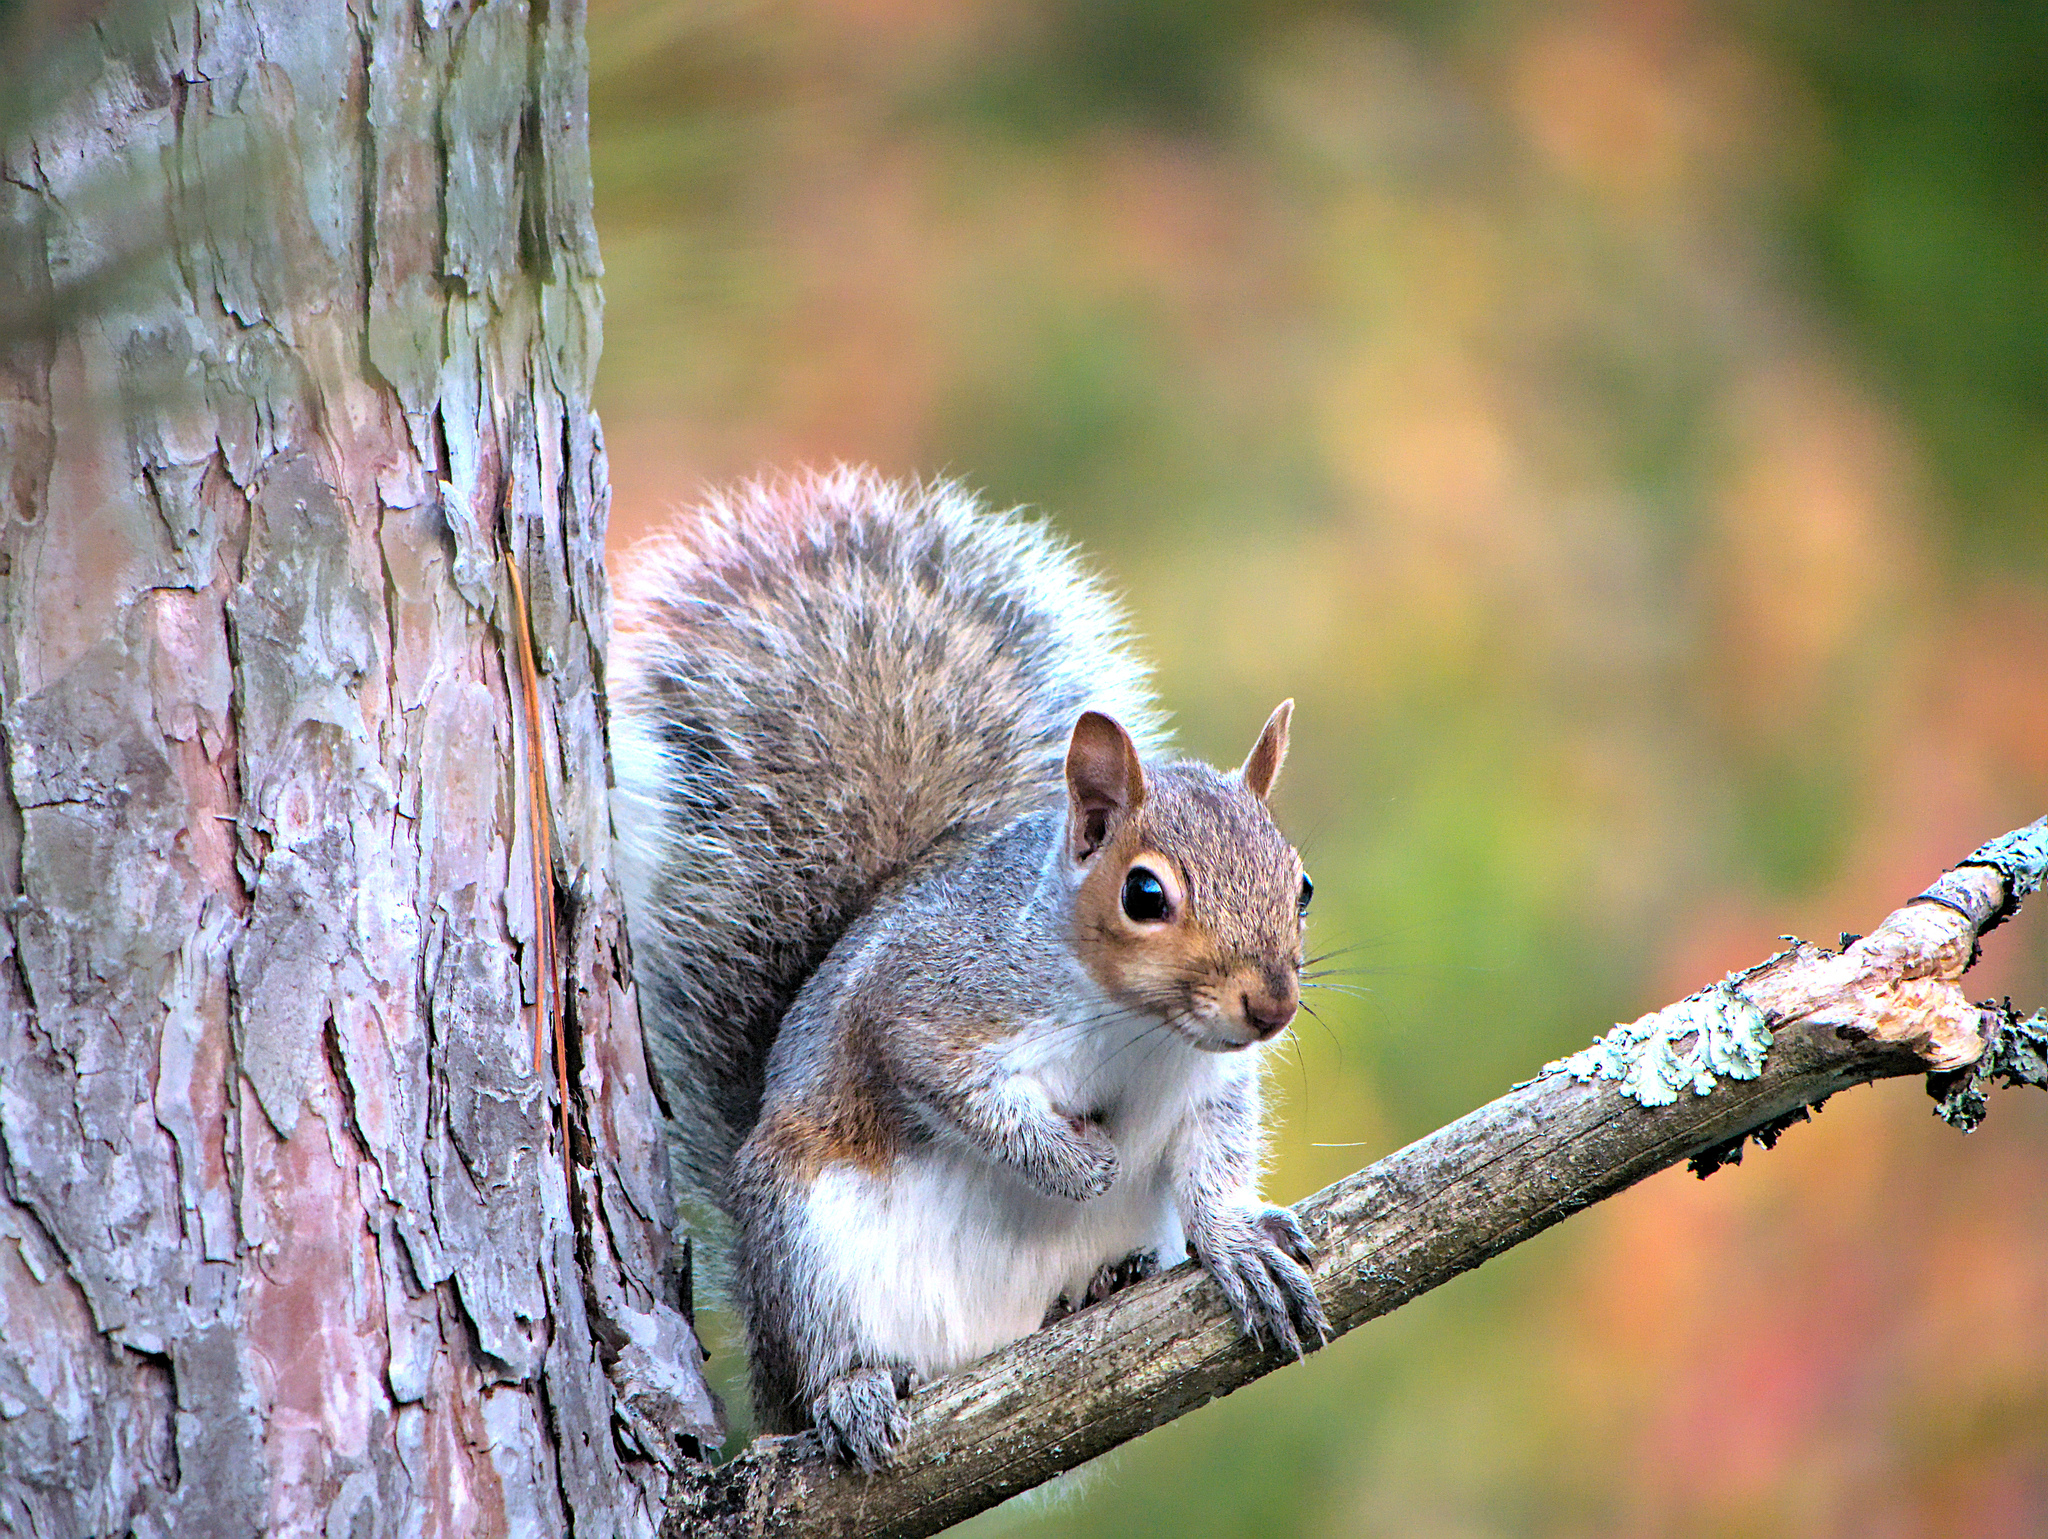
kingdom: Animalia
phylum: Chordata
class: Mammalia
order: Rodentia
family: Sciuridae
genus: Sciurus
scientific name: Sciurus carolinensis
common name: Eastern gray squirrel
